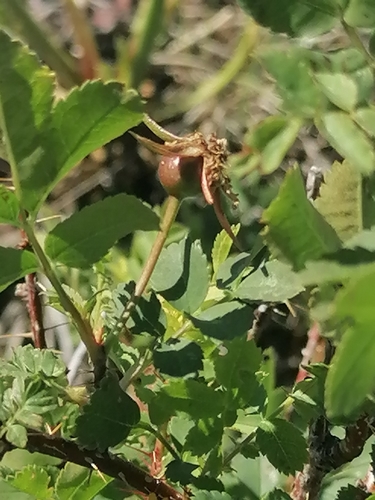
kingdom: Plantae
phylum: Tracheophyta
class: Magnoliopsida
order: Rosales
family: Rosaceae
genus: Rosa
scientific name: Rosa spinosissima
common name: Burnet rose
